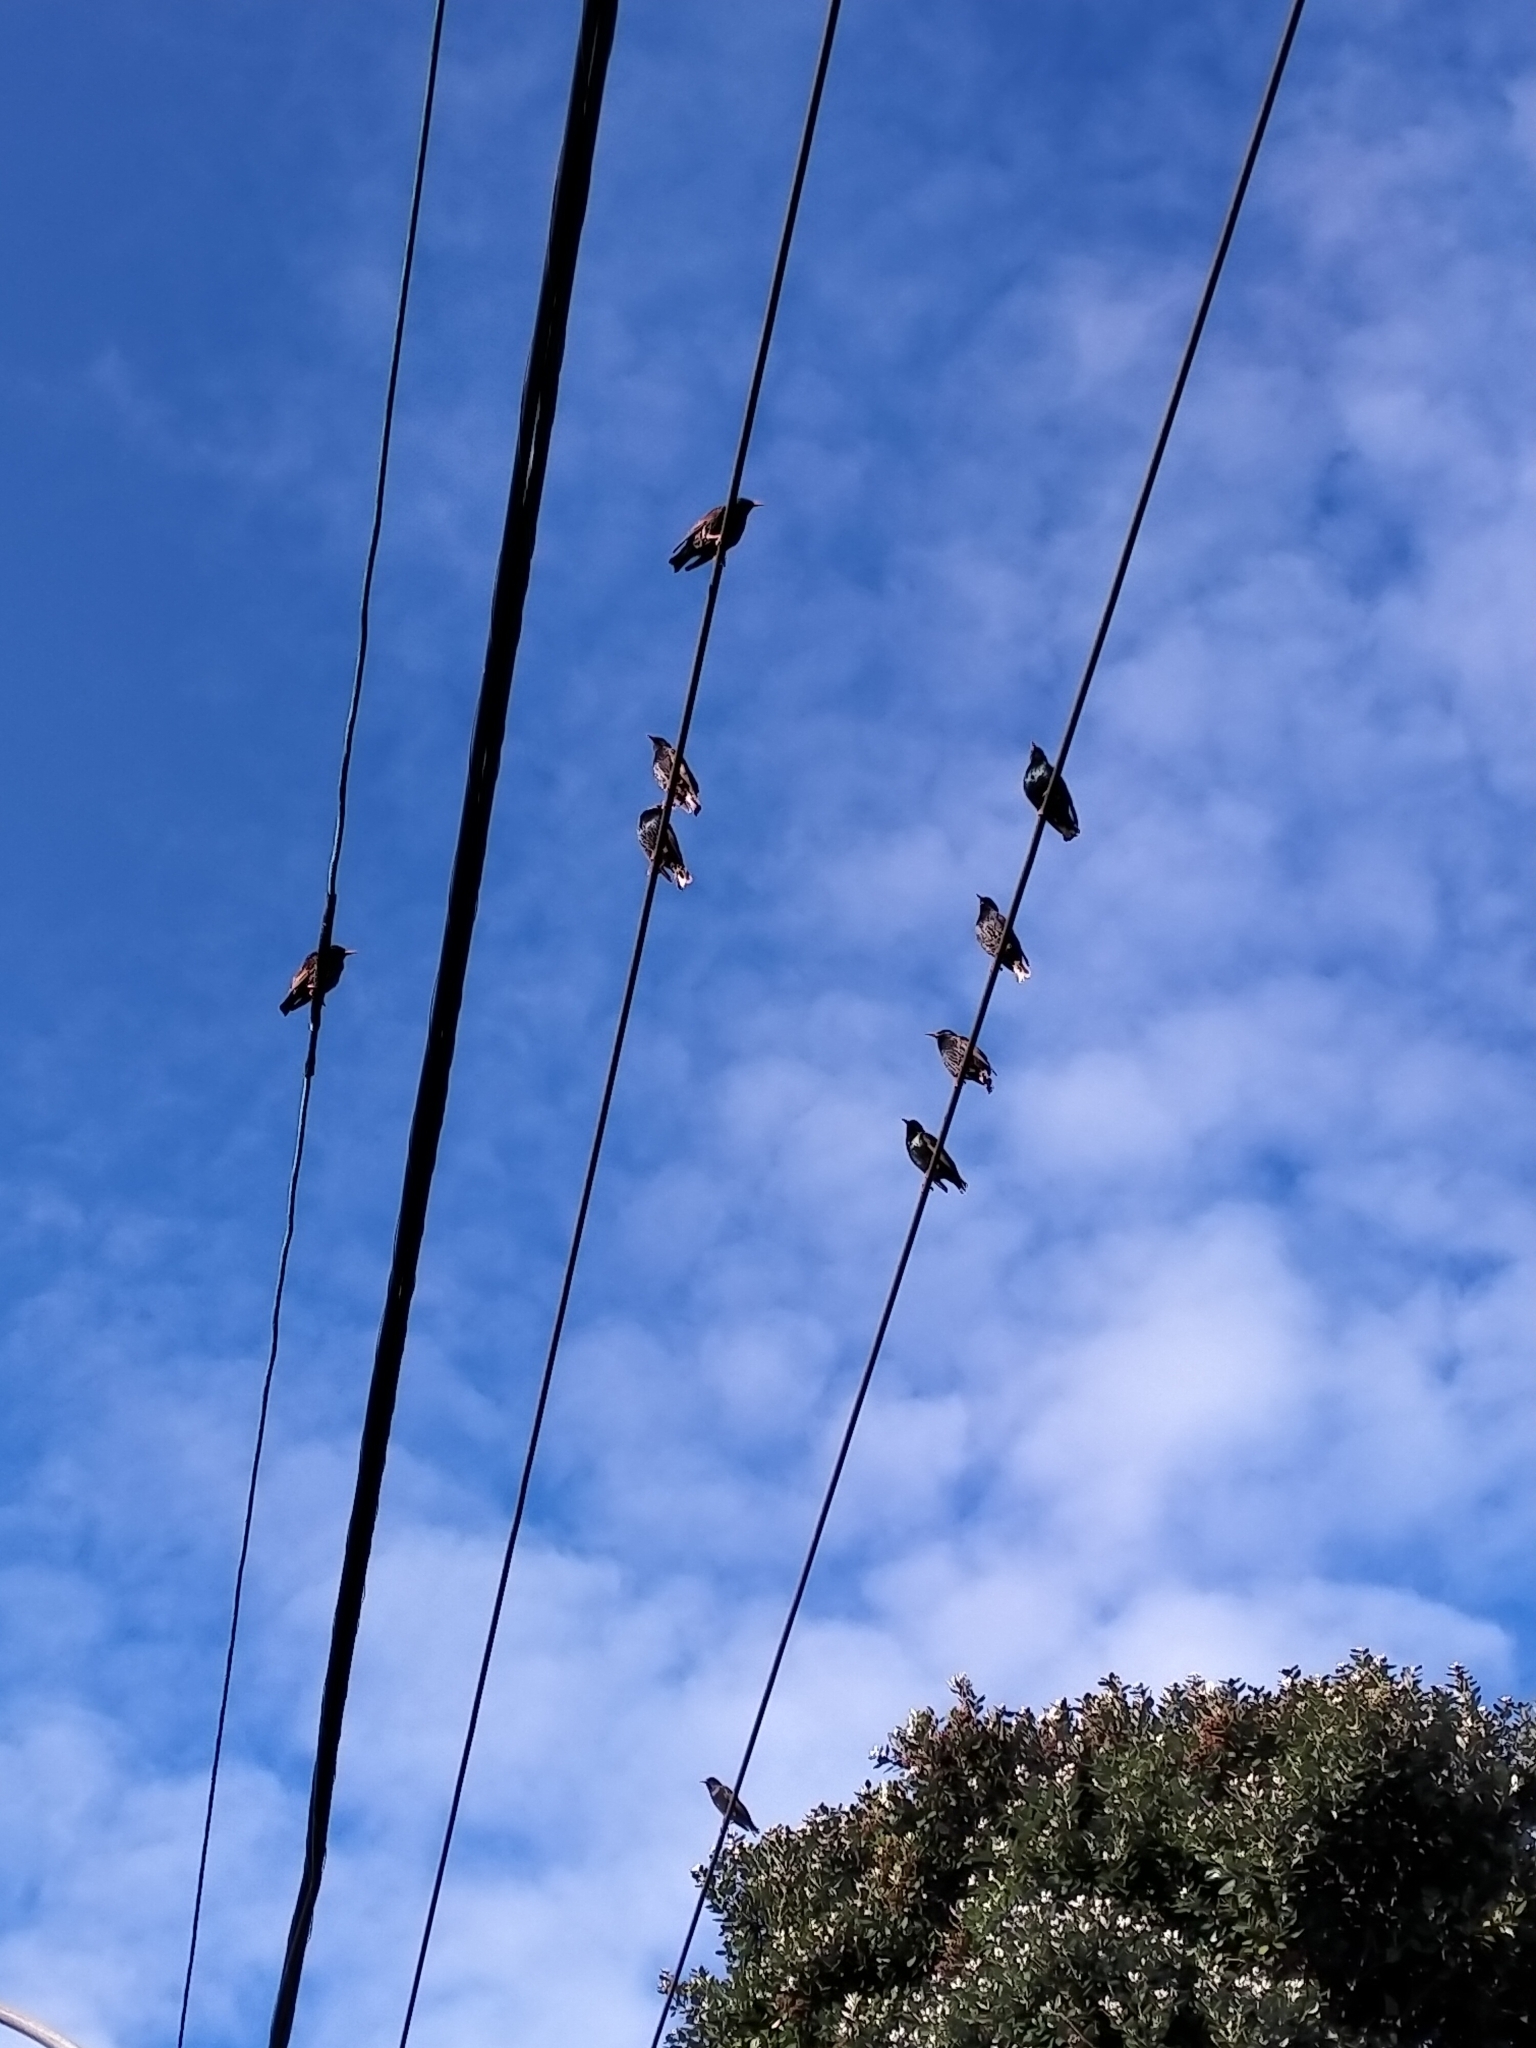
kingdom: Animalia
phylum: Chordata
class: Aves
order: Passeriformes
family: Sturnidae
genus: Sturnus
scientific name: Sturnus vulgaris
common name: Common starling
